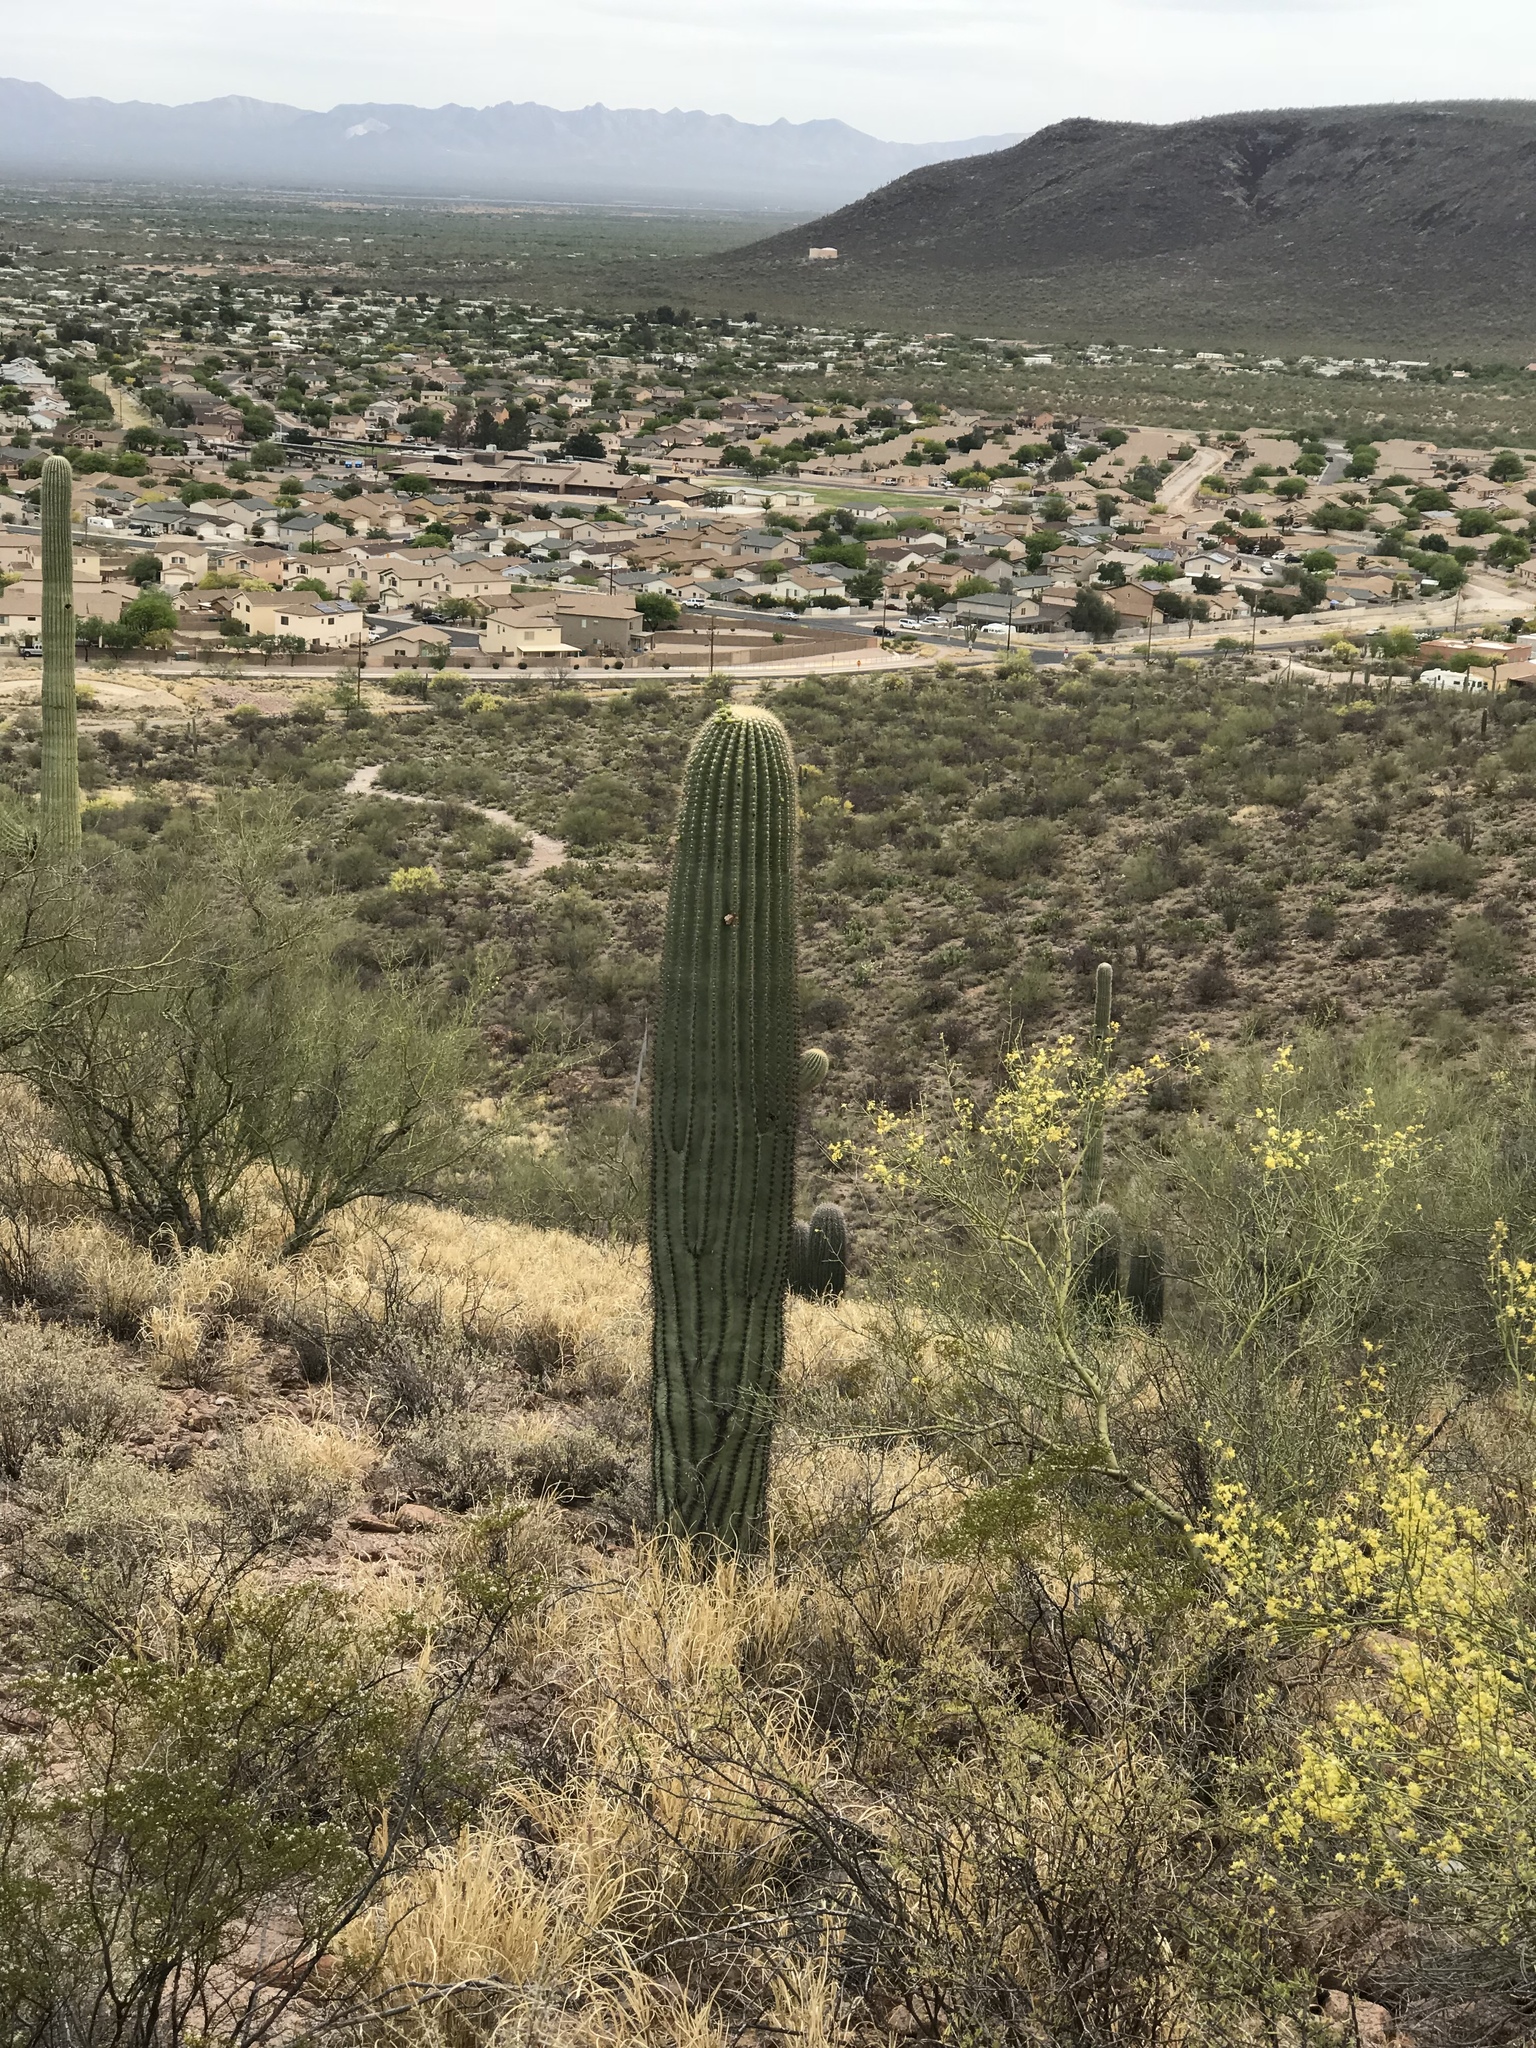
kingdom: Plantae
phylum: Tracheophyta
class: Magnoliopsida
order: Caryophyllales
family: Cactaceae
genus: Carnegiea
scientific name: Carnegiea gigantea
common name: Saguaro
